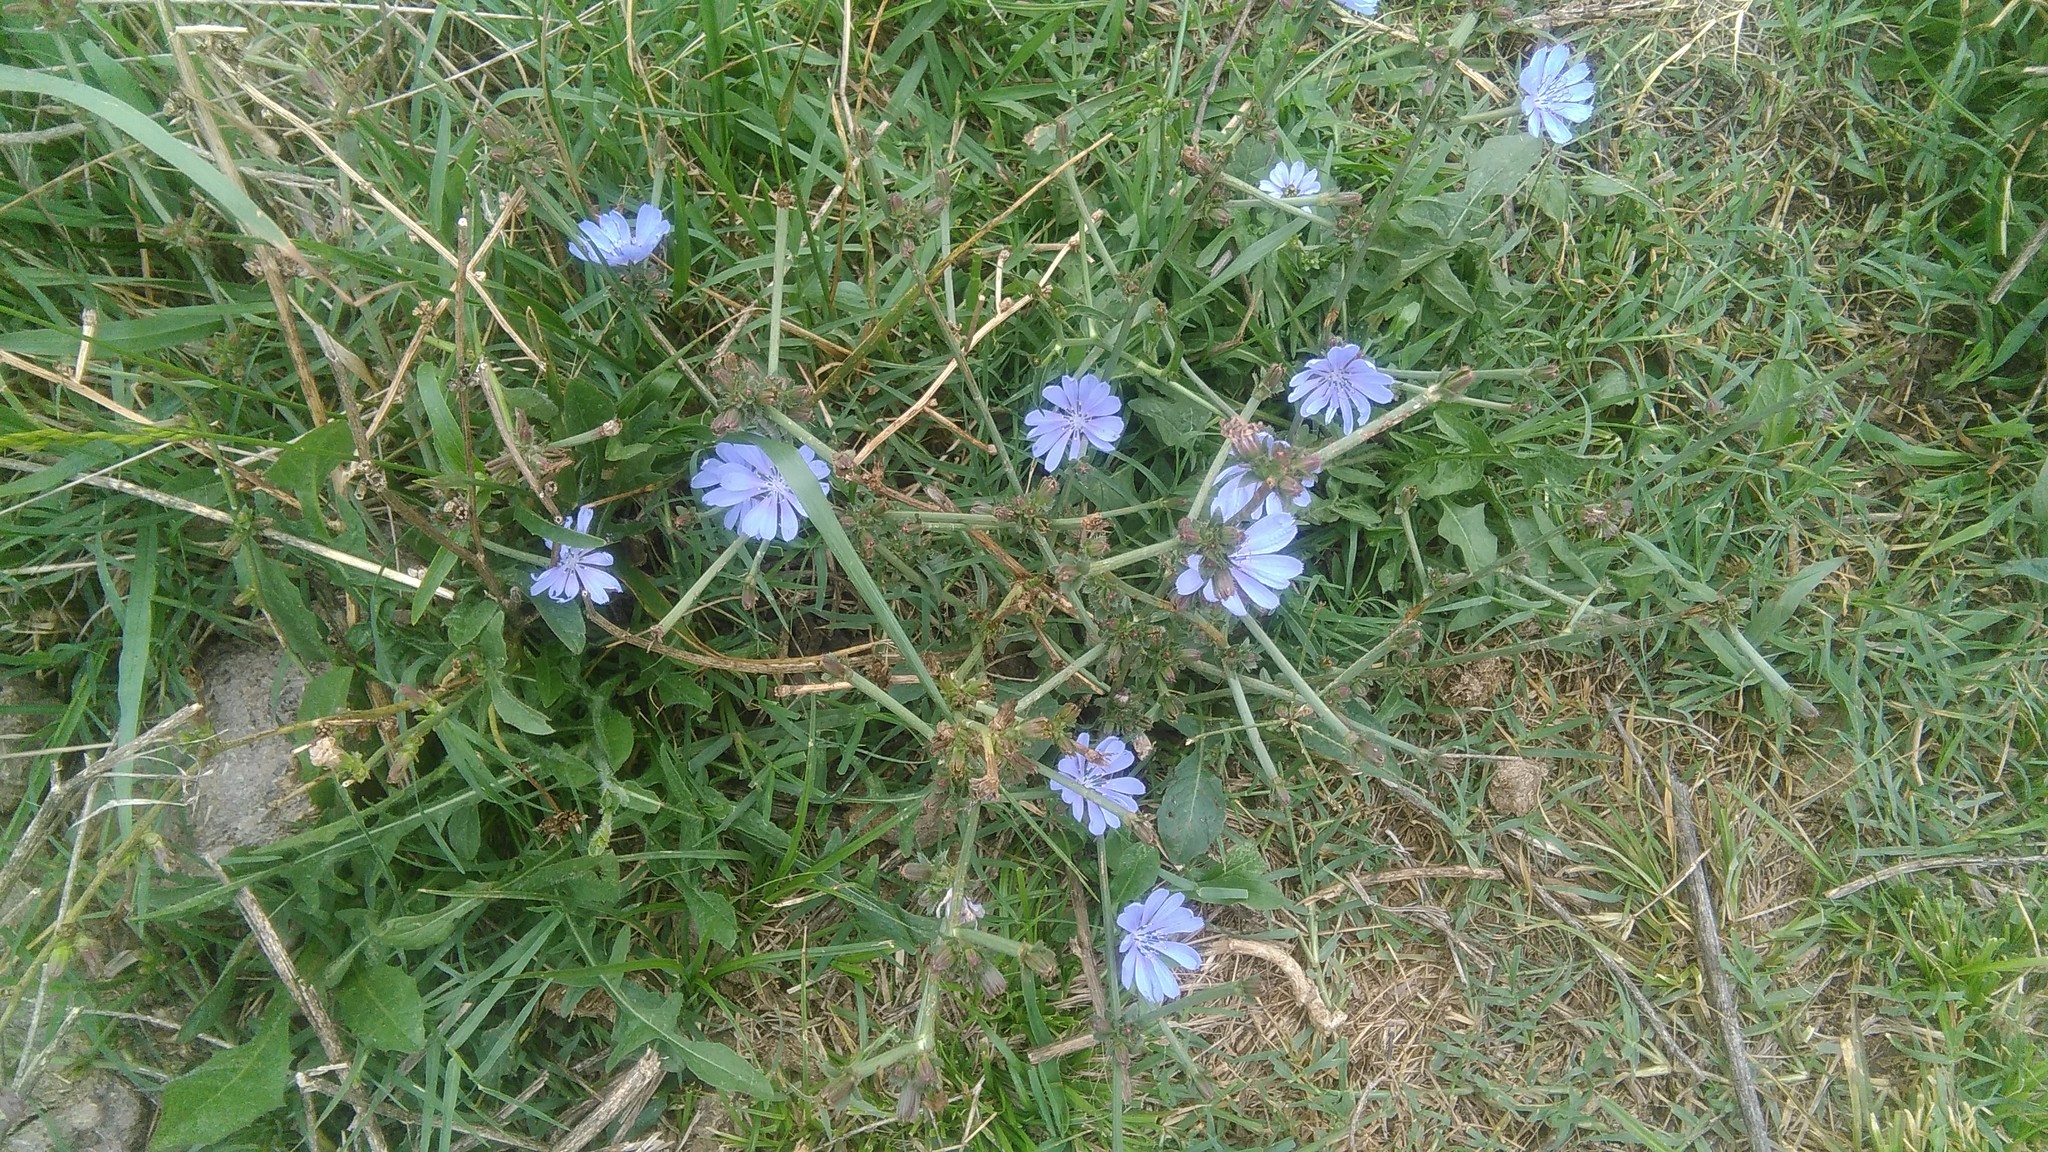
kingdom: Plantae
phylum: Tracheophyta
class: Magnoliopsida
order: Asterales
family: Asteraceae
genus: Cichorium
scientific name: Cichorium intybus
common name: Chicory
